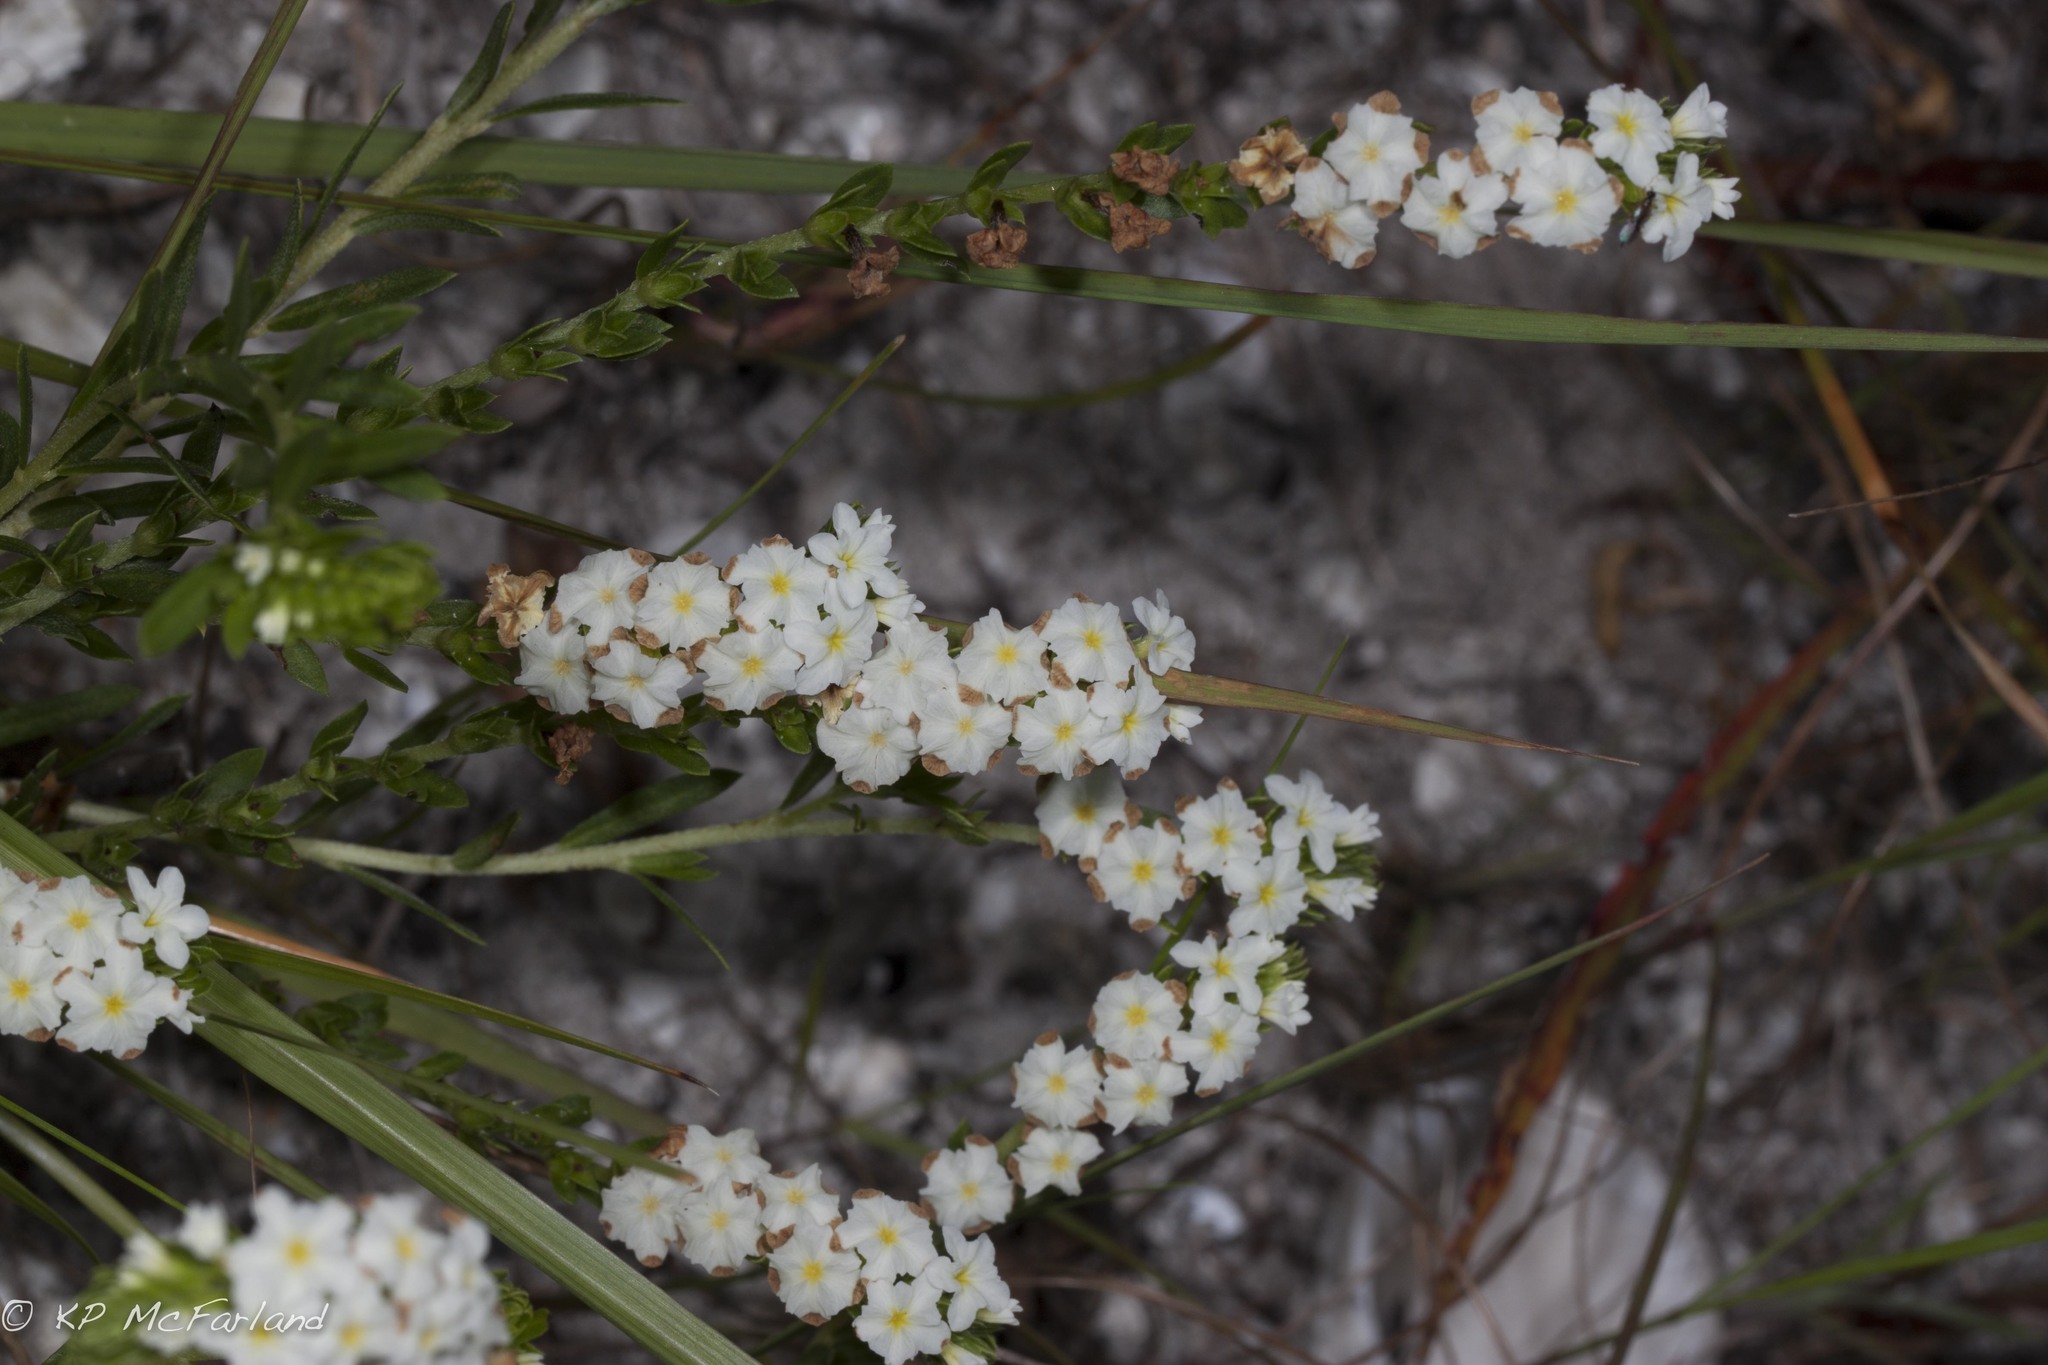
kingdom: Plantae
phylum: Tracheophyta
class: Magnoliopsida
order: Boraginales
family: Heliotropiaceae
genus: Euploca
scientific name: Euploca polyphylla
